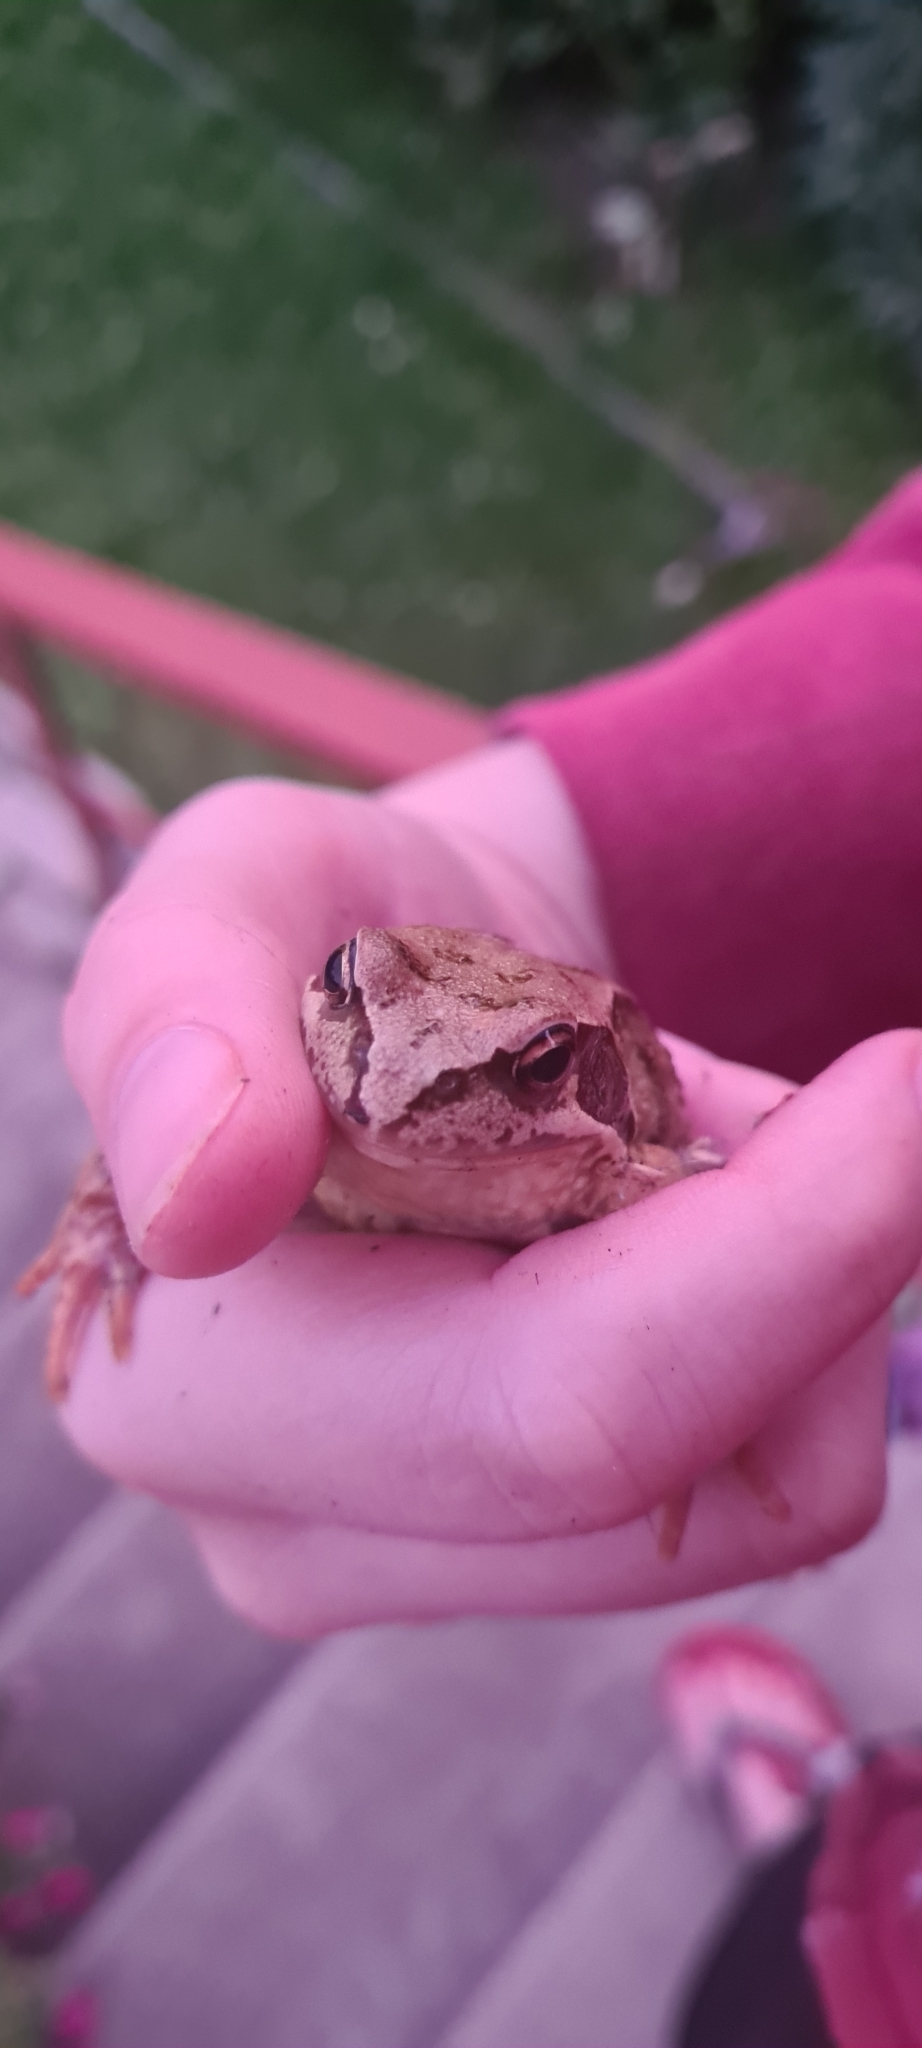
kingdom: Animalia
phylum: Chordata
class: Amphibia
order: Anura
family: Ranidae
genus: Rana
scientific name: Rana temporaria
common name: Common frog
